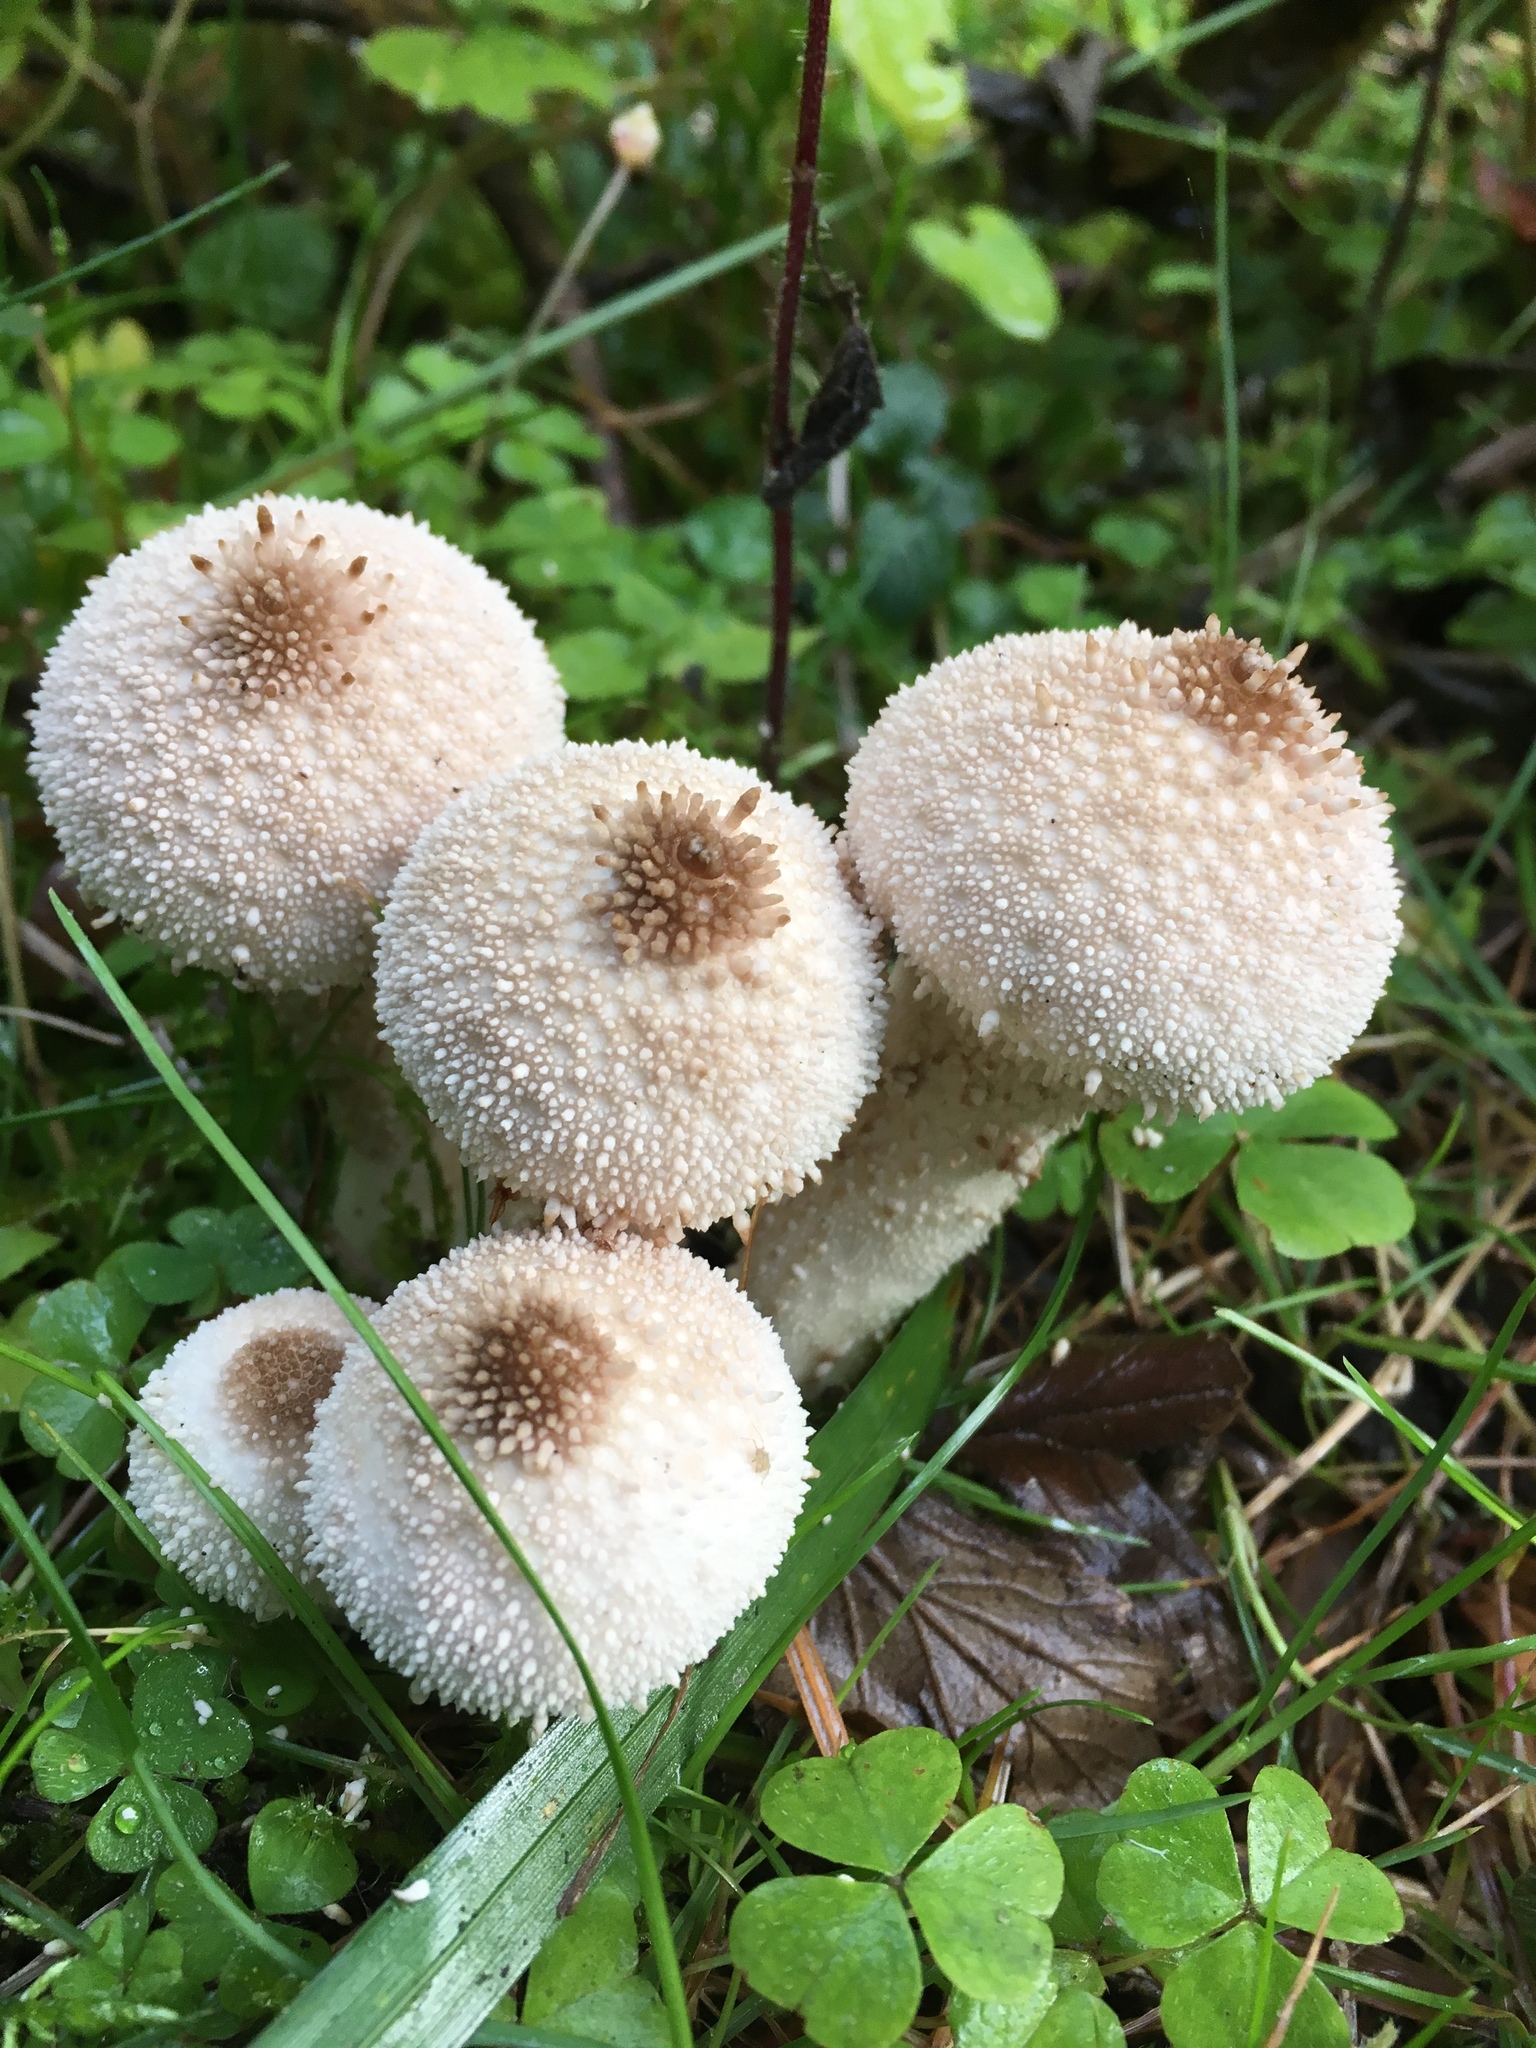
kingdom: Fungi
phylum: Basidiomycota
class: Agaricomycetes
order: Agaricales
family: Lycoperdaceae
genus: Lycoperdon
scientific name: Lycoperdon perlatum
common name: Common puffball
